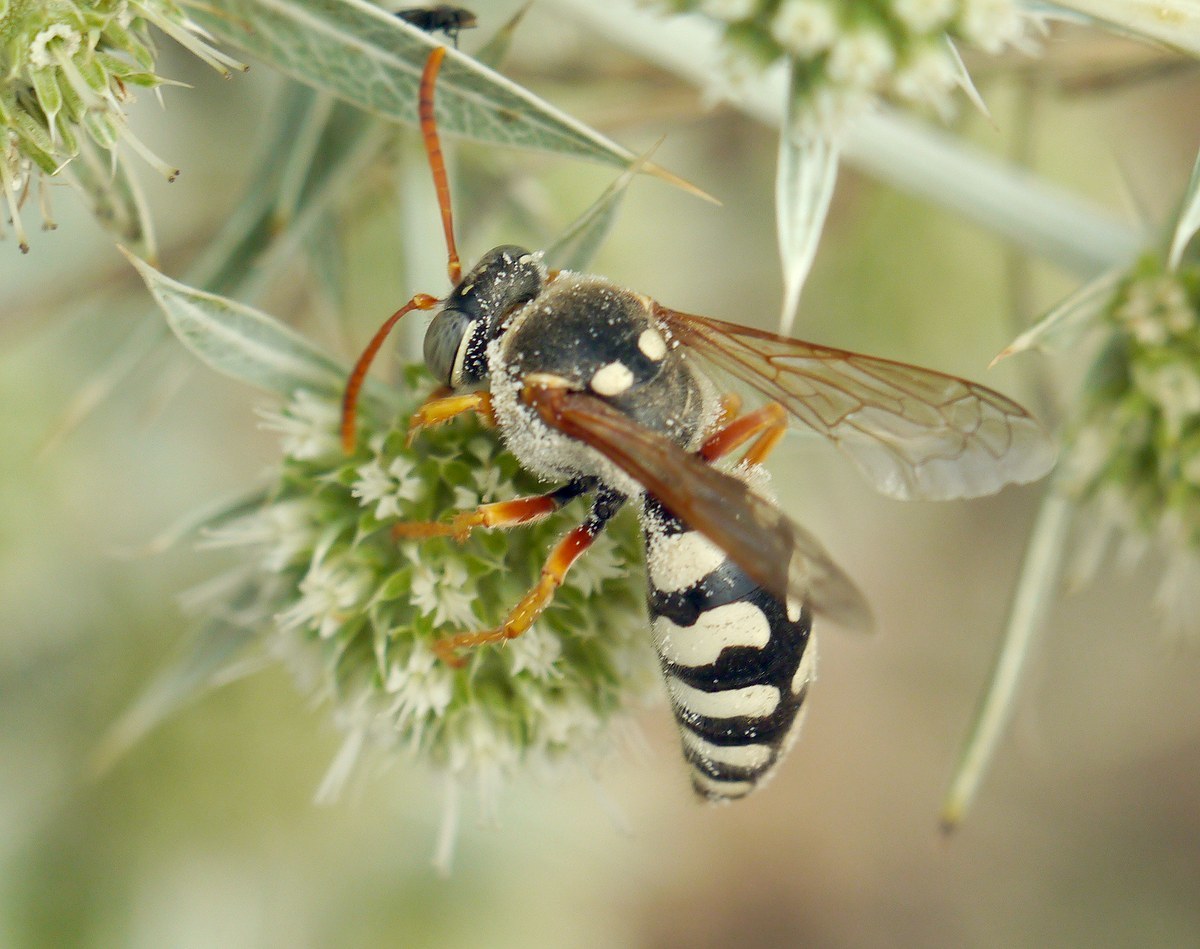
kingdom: Animalia
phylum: Arthropoda
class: Insecta
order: Hymenoptera
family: Crabronidae
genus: Stizus
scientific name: Stizus bipunctatus
